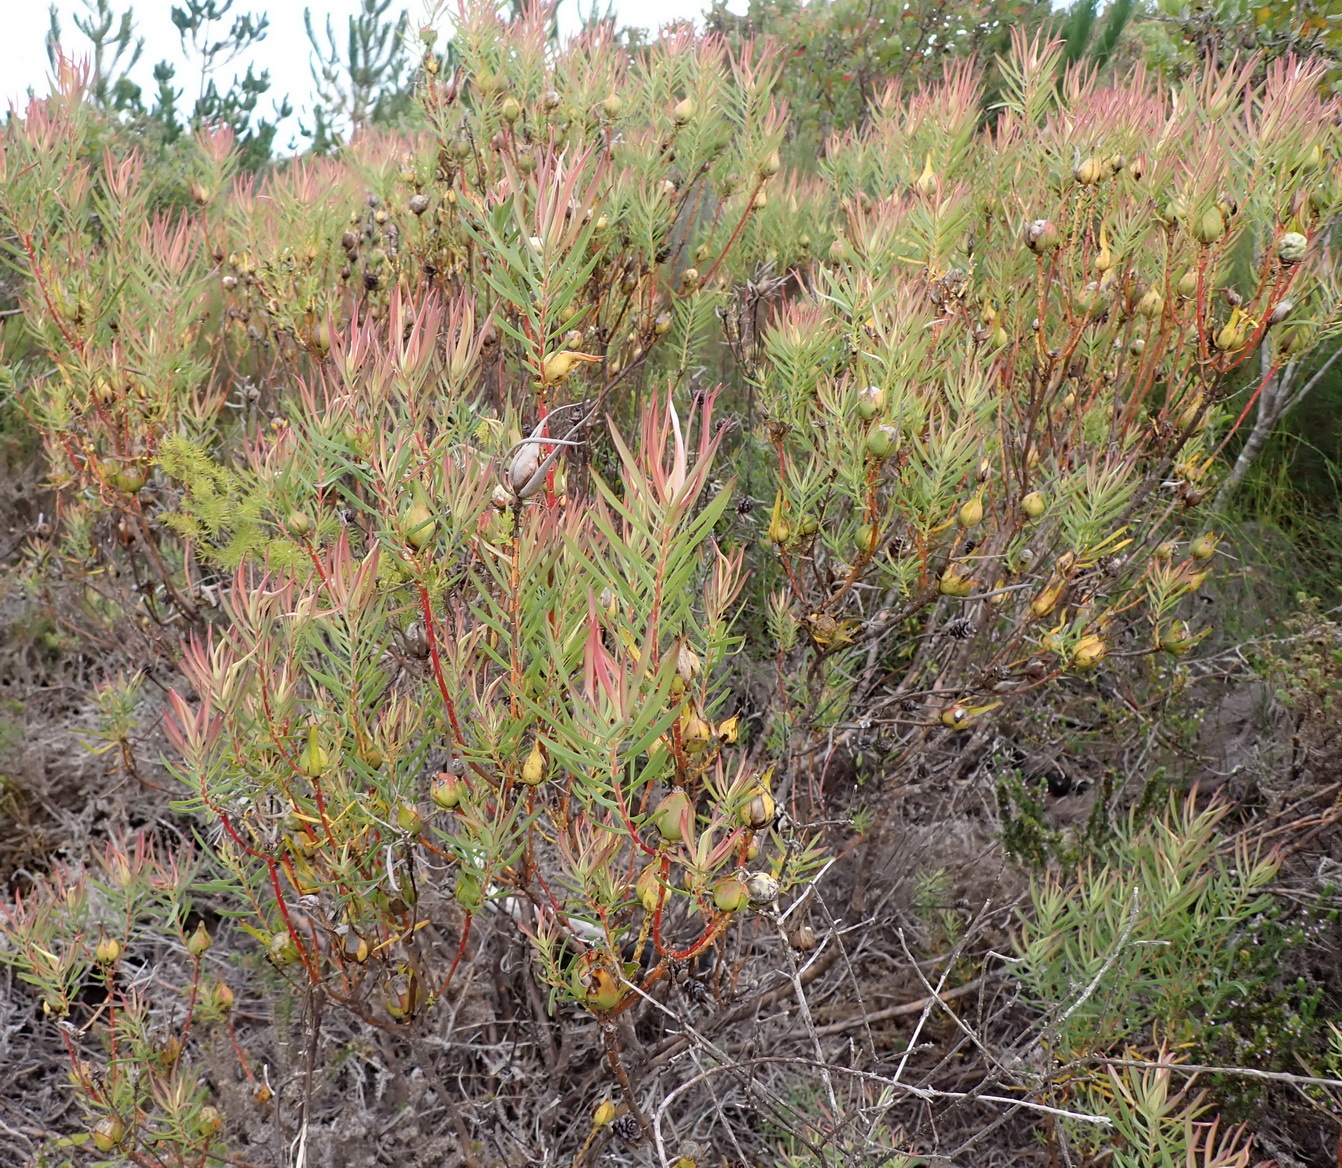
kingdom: Plantae
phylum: Tracheophyta
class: Magnoliopsida
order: Proteales
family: Proteaceae
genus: Leucadendron
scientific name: Leucadendron salignum
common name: Common sunshine conebush
